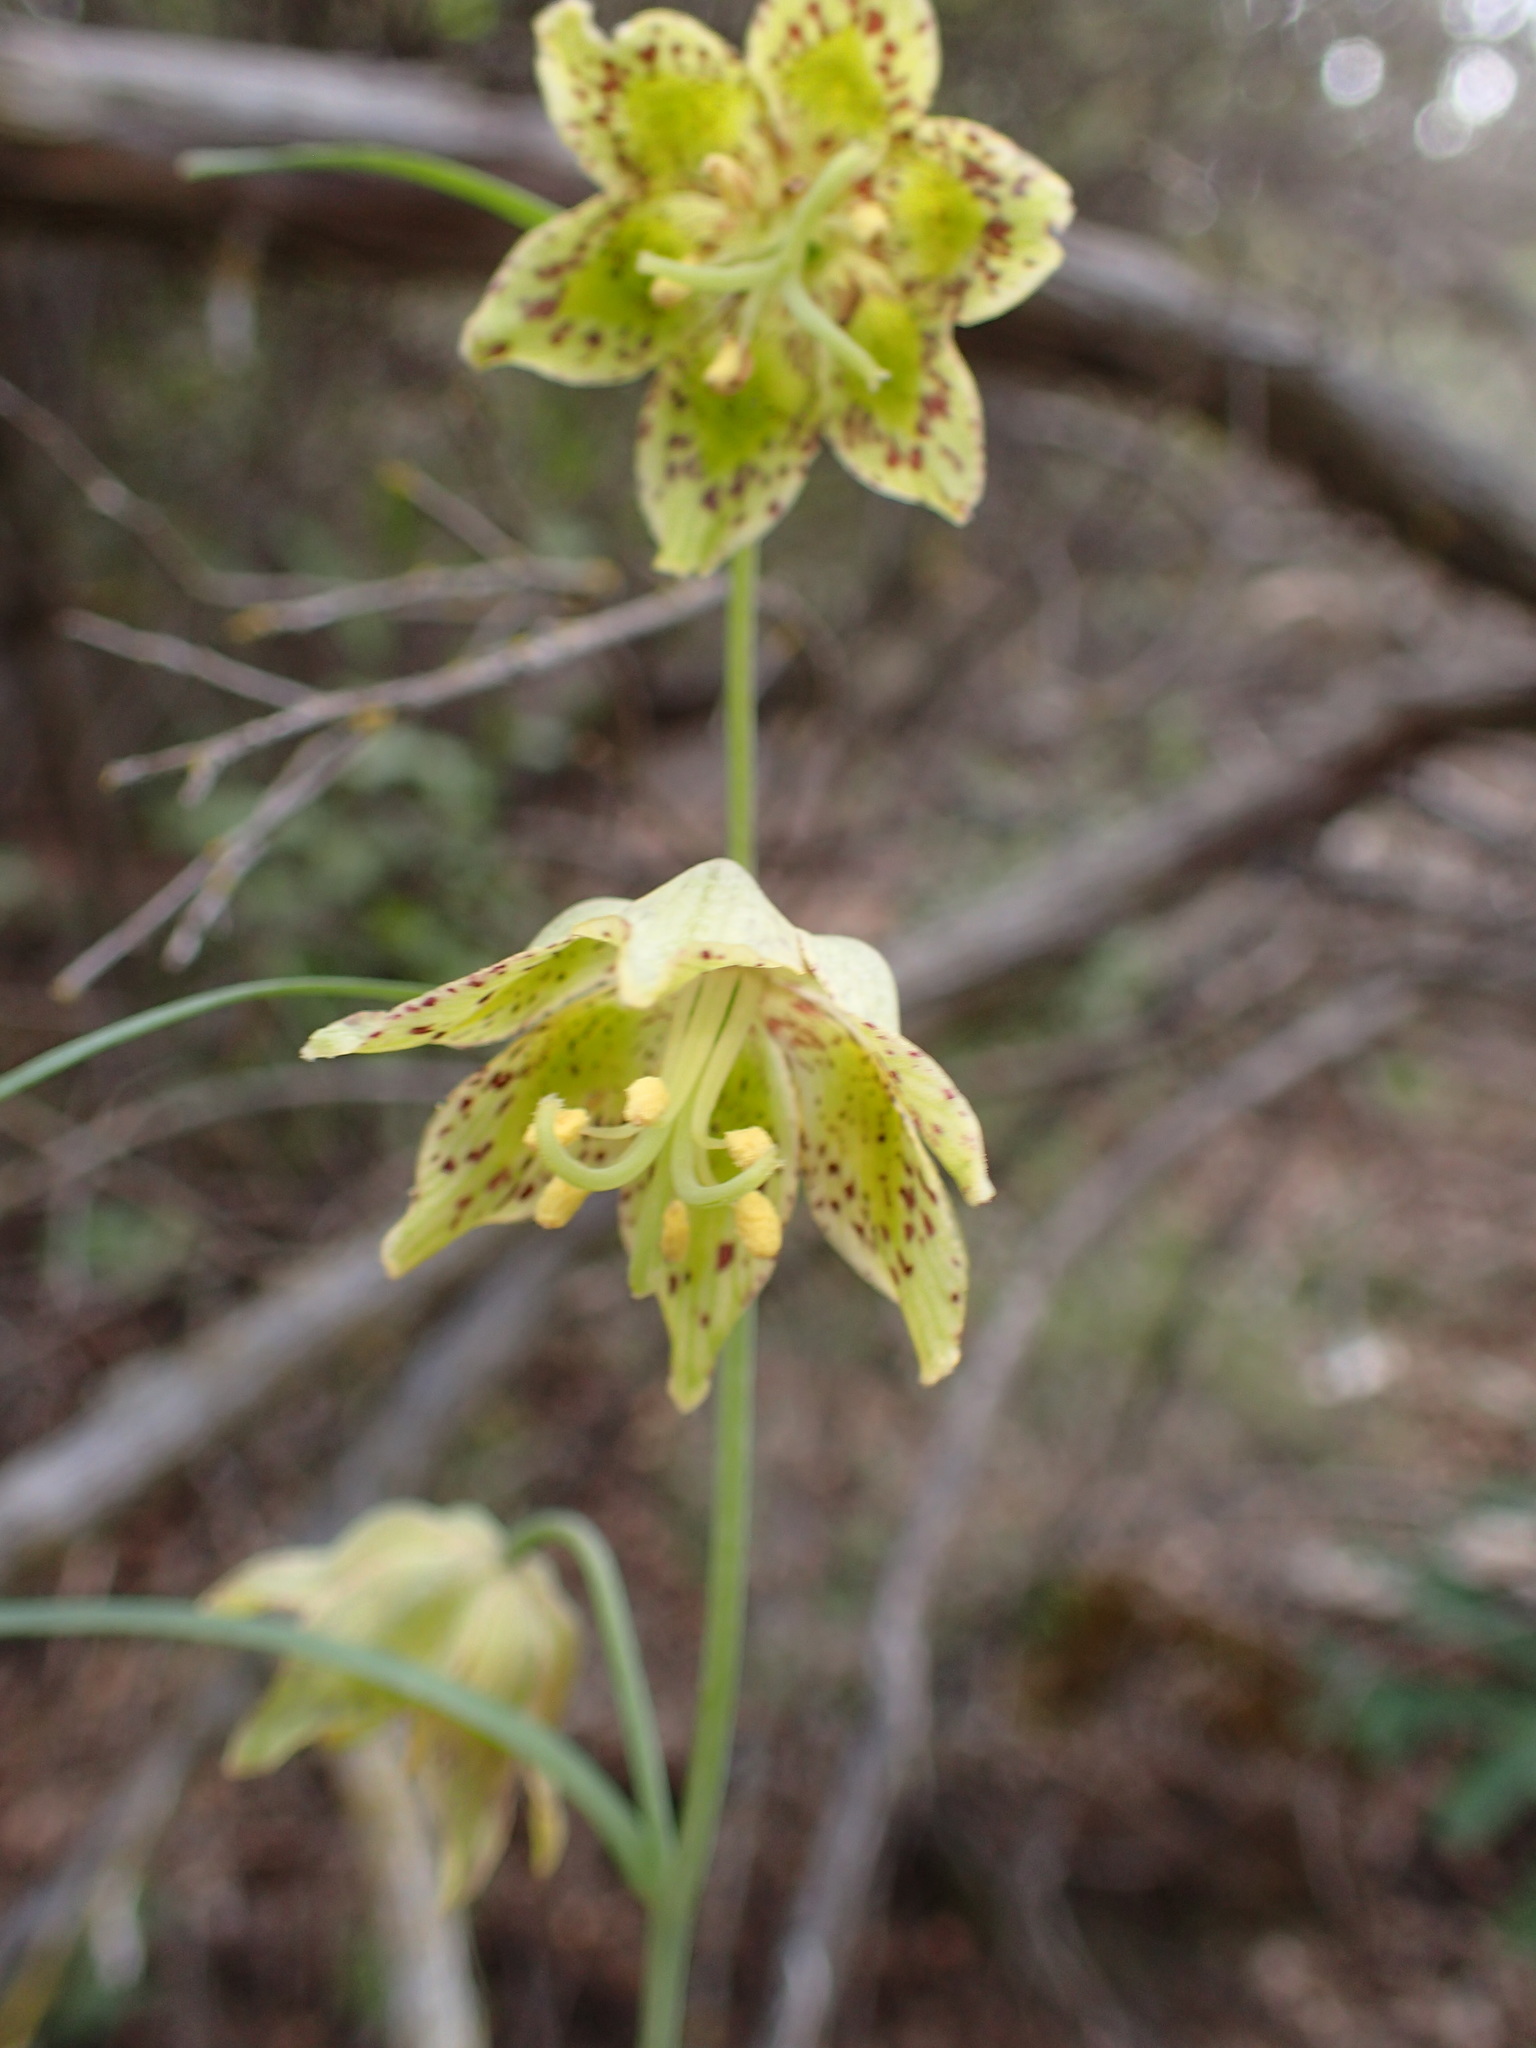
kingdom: Plantae
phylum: Tracheophyta
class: Liliopsida
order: Liliales
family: Liliaceae
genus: Fritillaria
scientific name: Fritillaria ojaiensis
